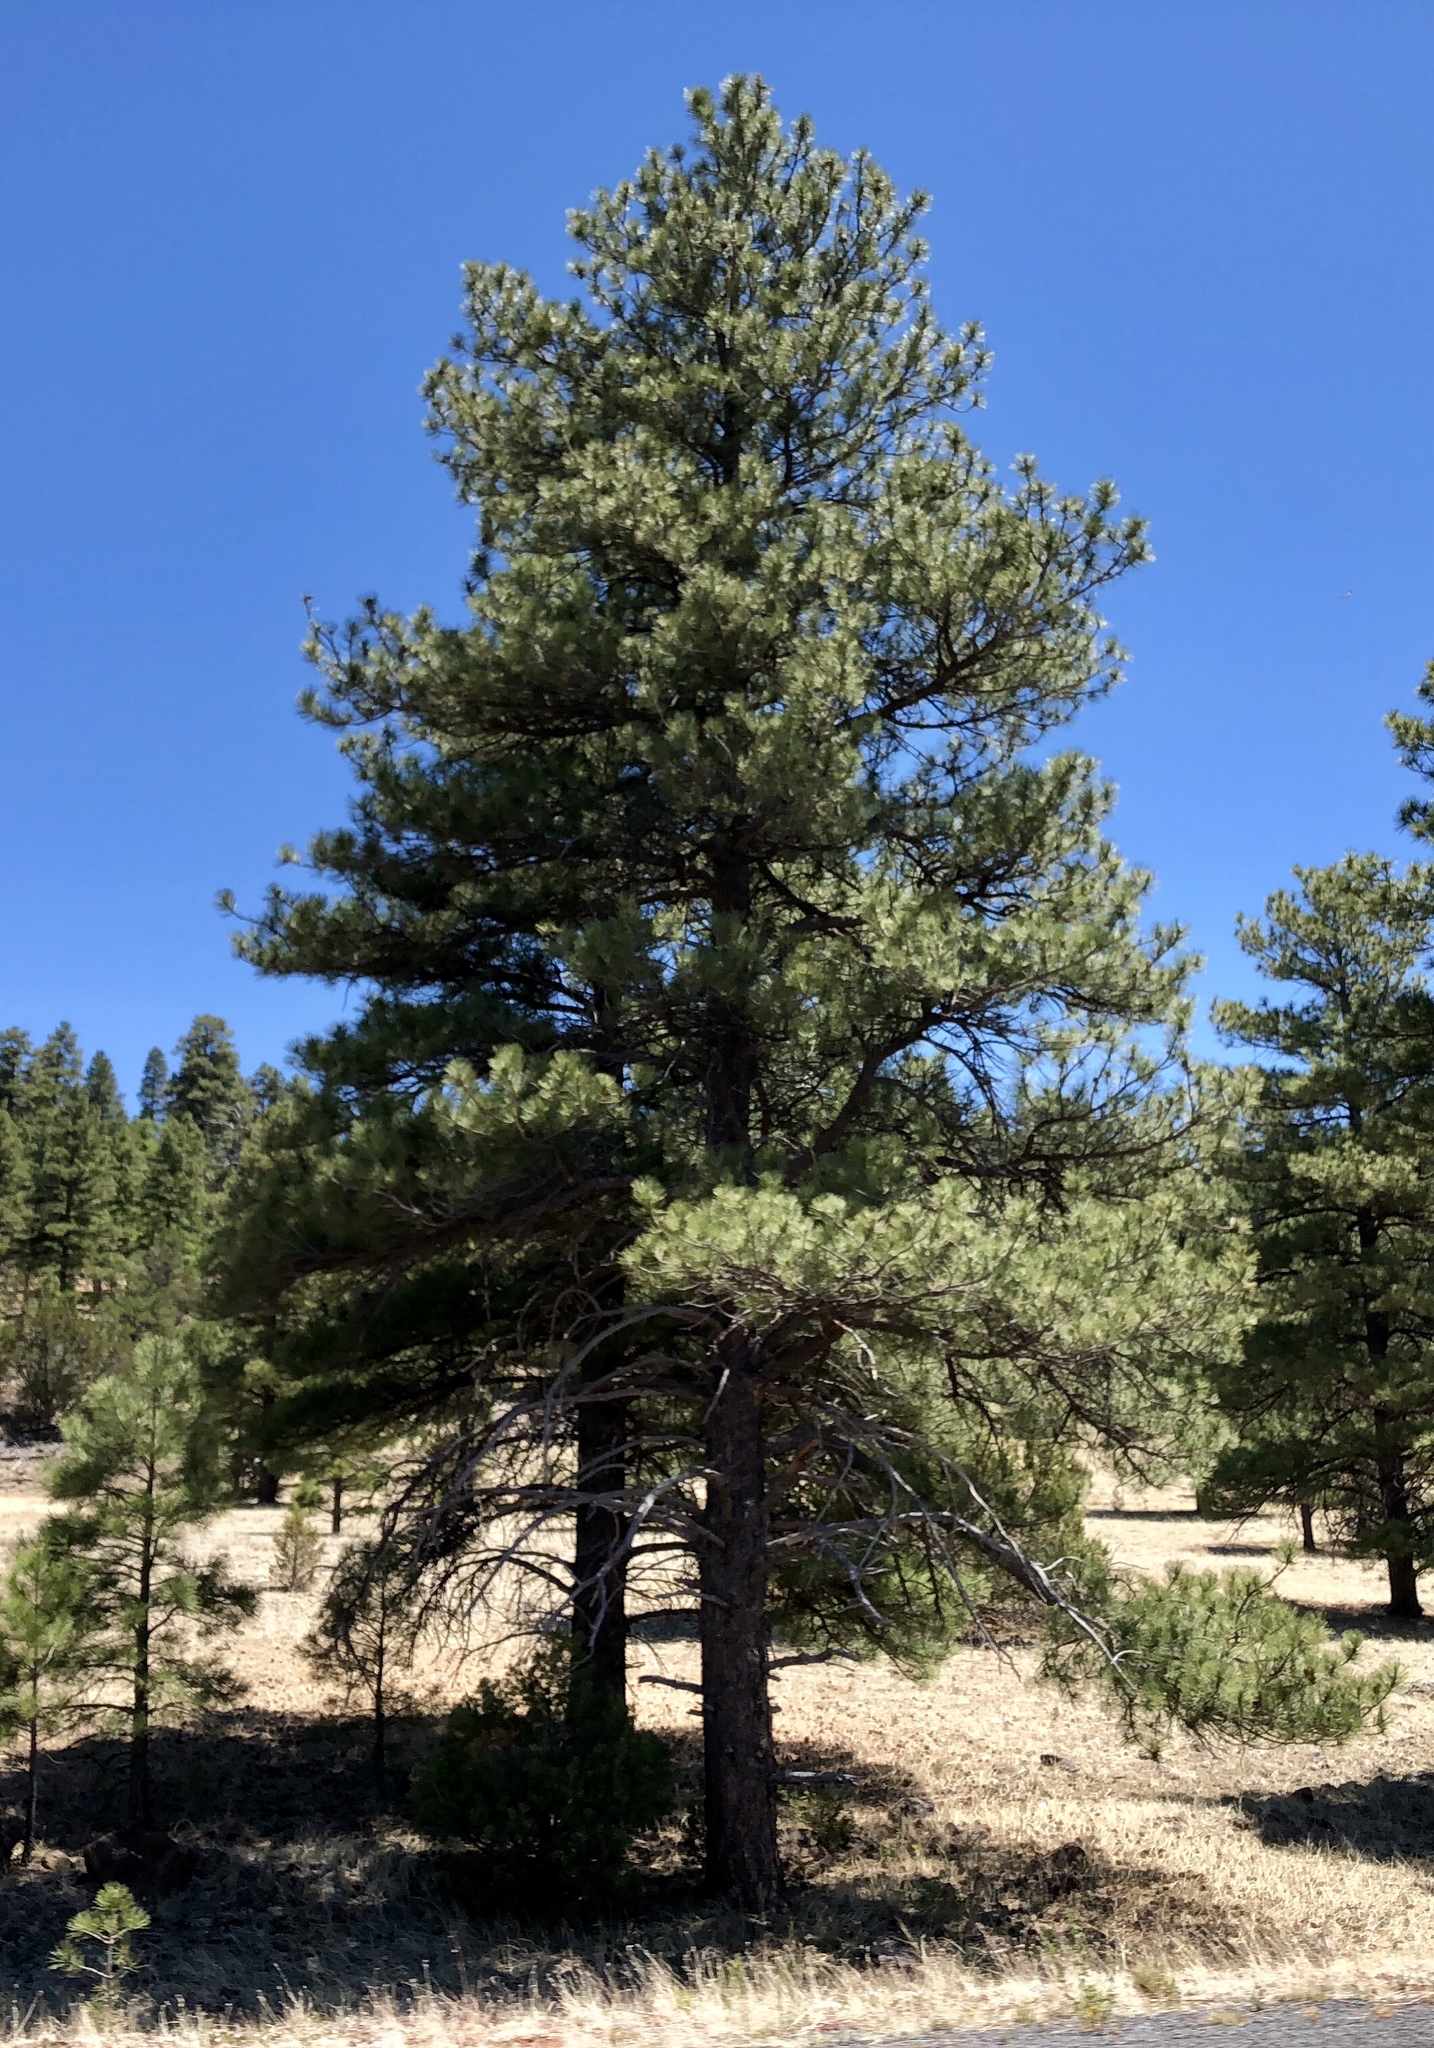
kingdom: Plantae
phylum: Tracheophyta
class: Pinopsida
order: Pinales
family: Pinaceae
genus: Pinus
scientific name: Pinus ponderosa
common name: Western yellow-pine
